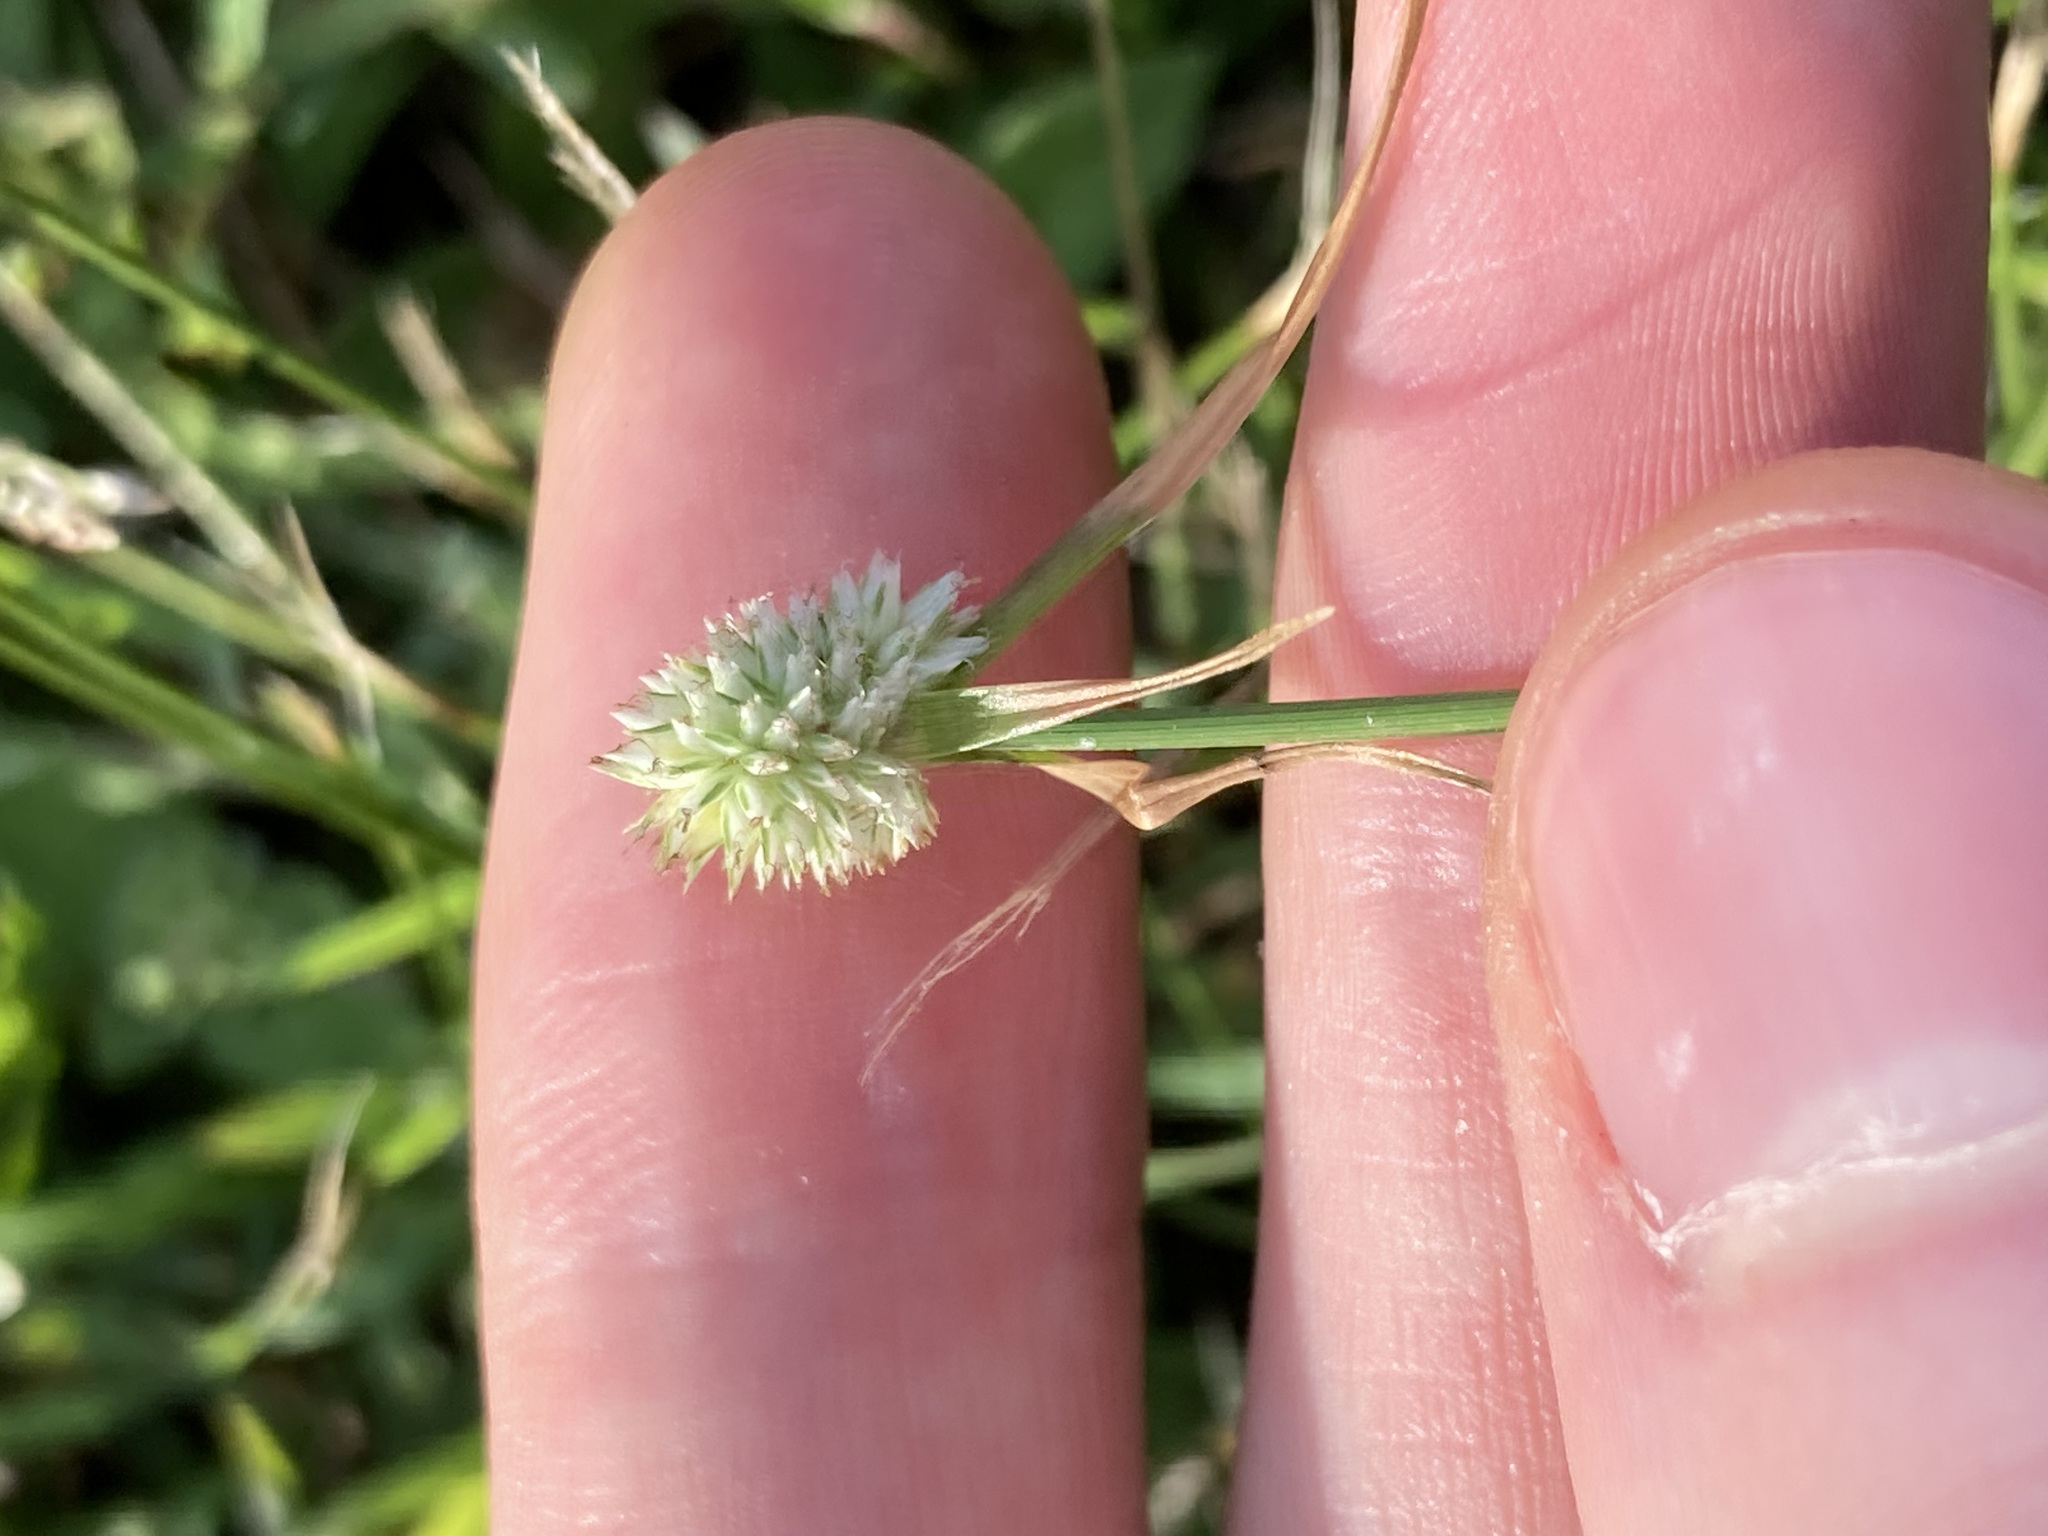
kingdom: Plantae
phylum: Tracheophyta
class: Liliopsida
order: Poales
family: Cyperaceae
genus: Cyperus
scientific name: Cyperus sesquiflorus
